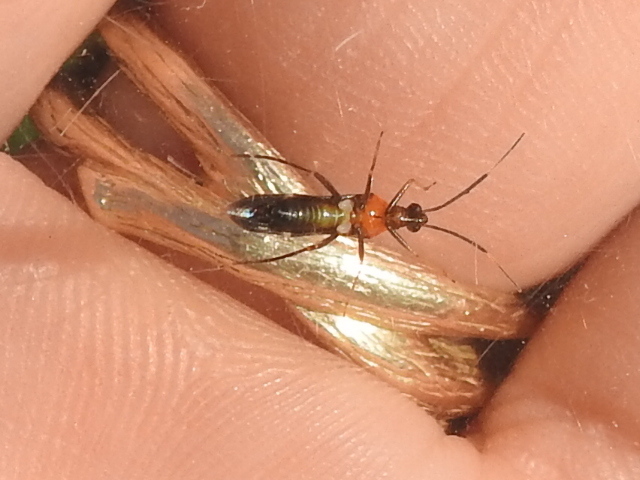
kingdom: Animalia
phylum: Arthropoda
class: Insecta
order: Hemiptera
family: Miridae
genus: Pseudoxenetus
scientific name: Pseudoxenetus regalis
